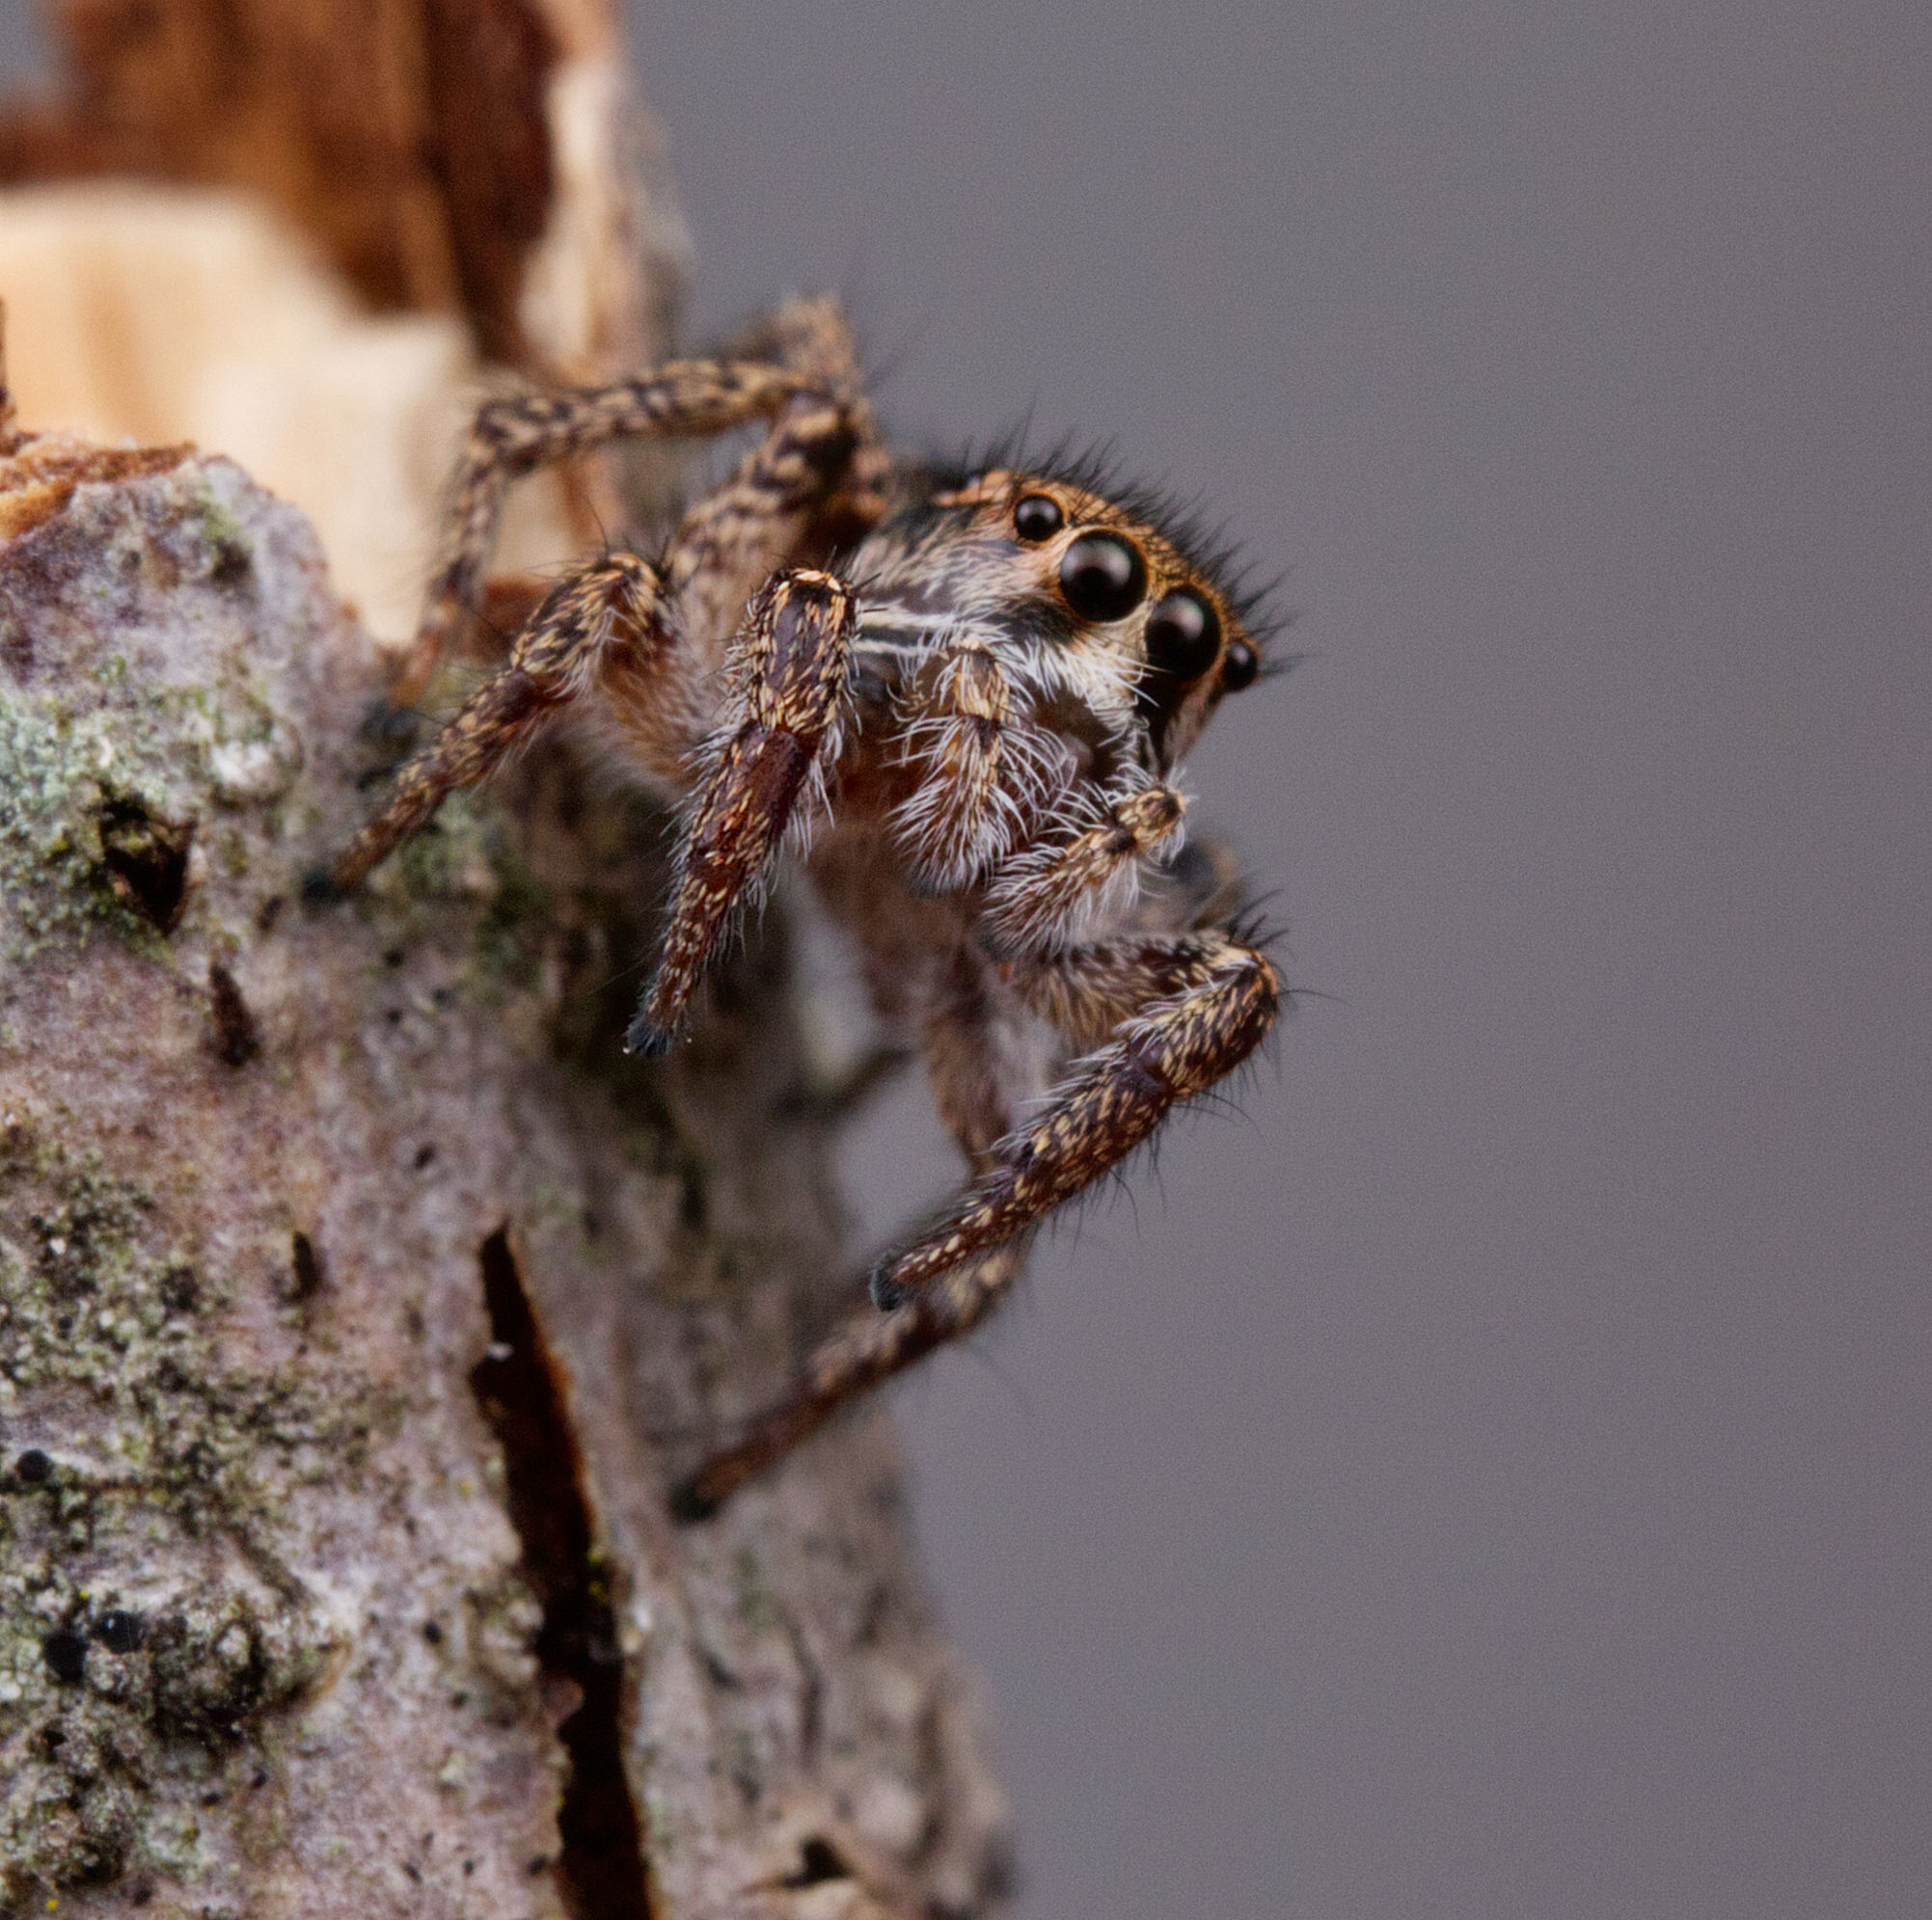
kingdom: Animalia
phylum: Arthropoda
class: Arachnida
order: Araneae
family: Salticidae
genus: Habronattus
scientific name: Habronattus orbus
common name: Orbus paradise spider
